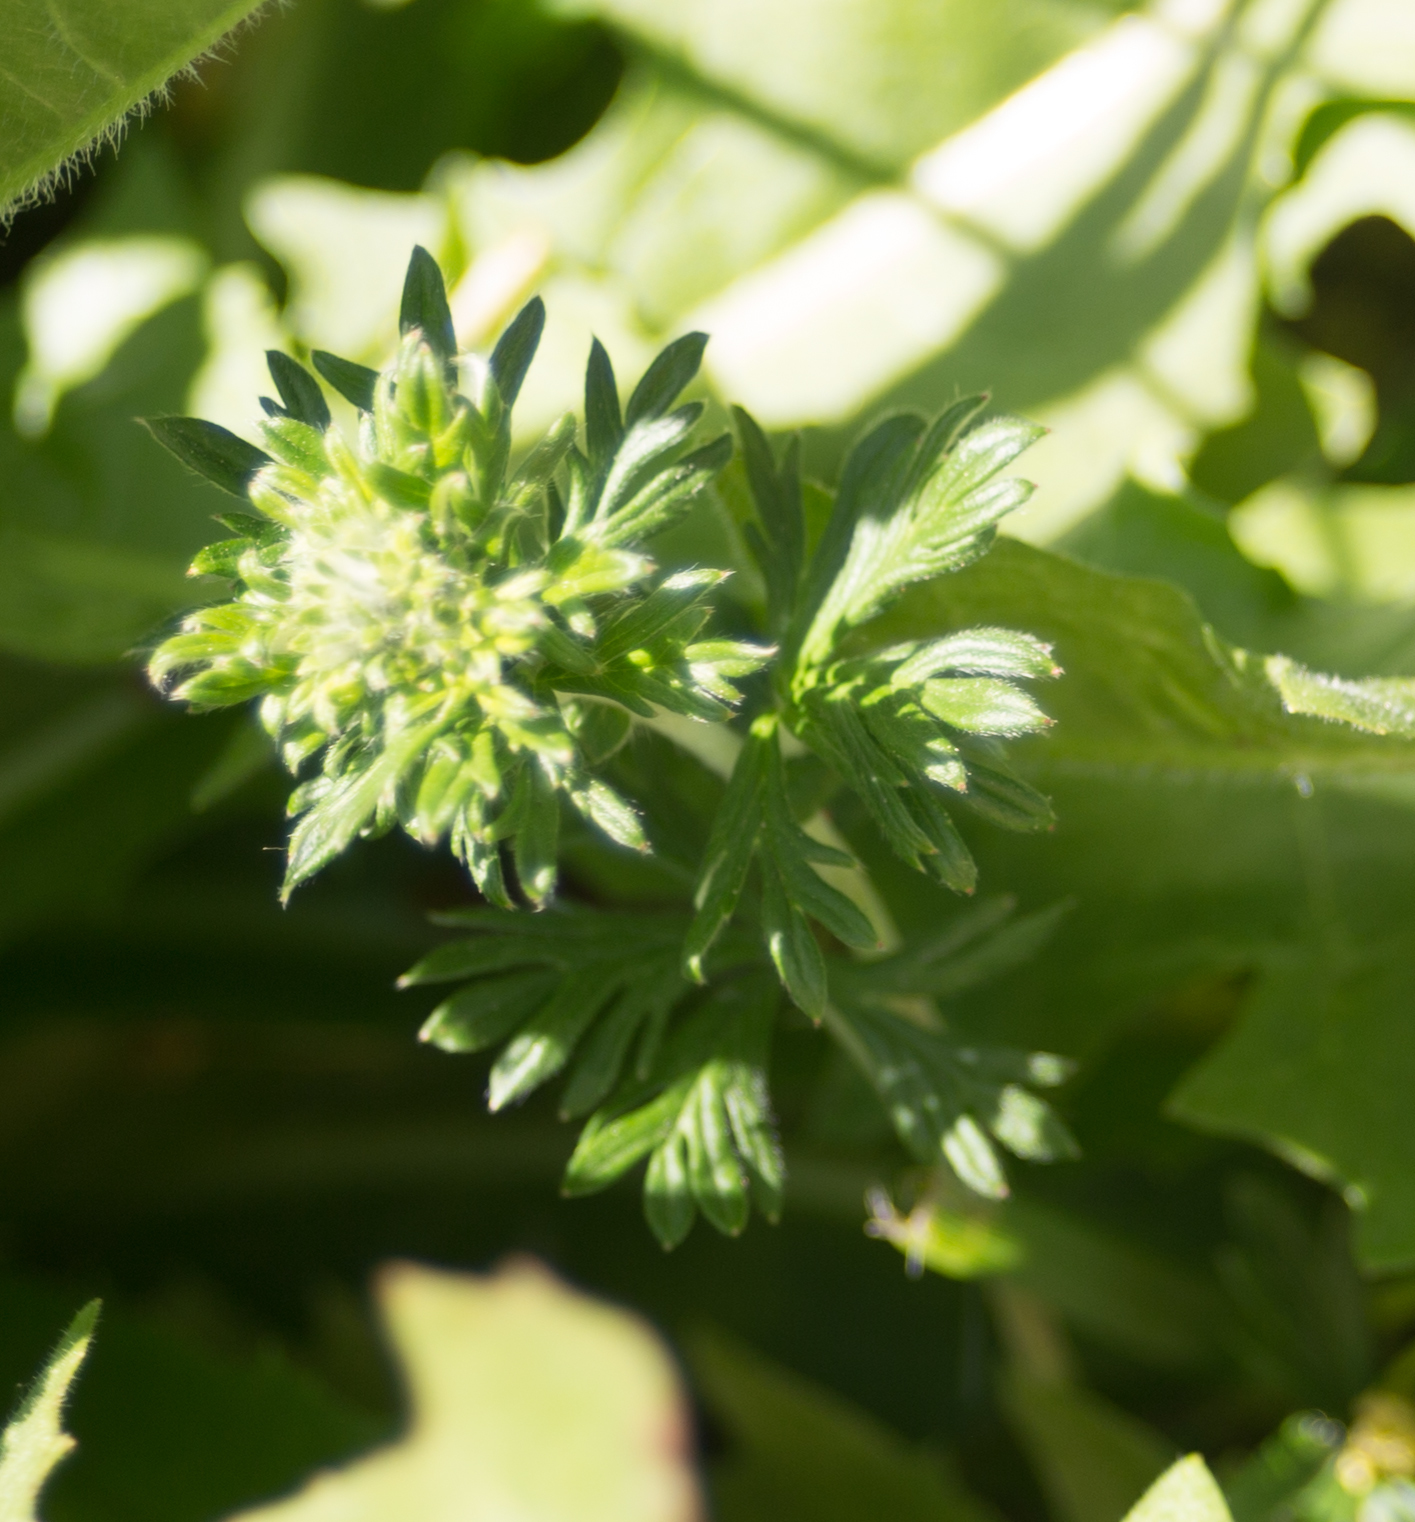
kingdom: Plantae
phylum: Tracheophyta
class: Magnoliopsida
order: Rosales
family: Rosaceae
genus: Potentilla
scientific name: Potentilla argentea
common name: Hoary cinquefoil
